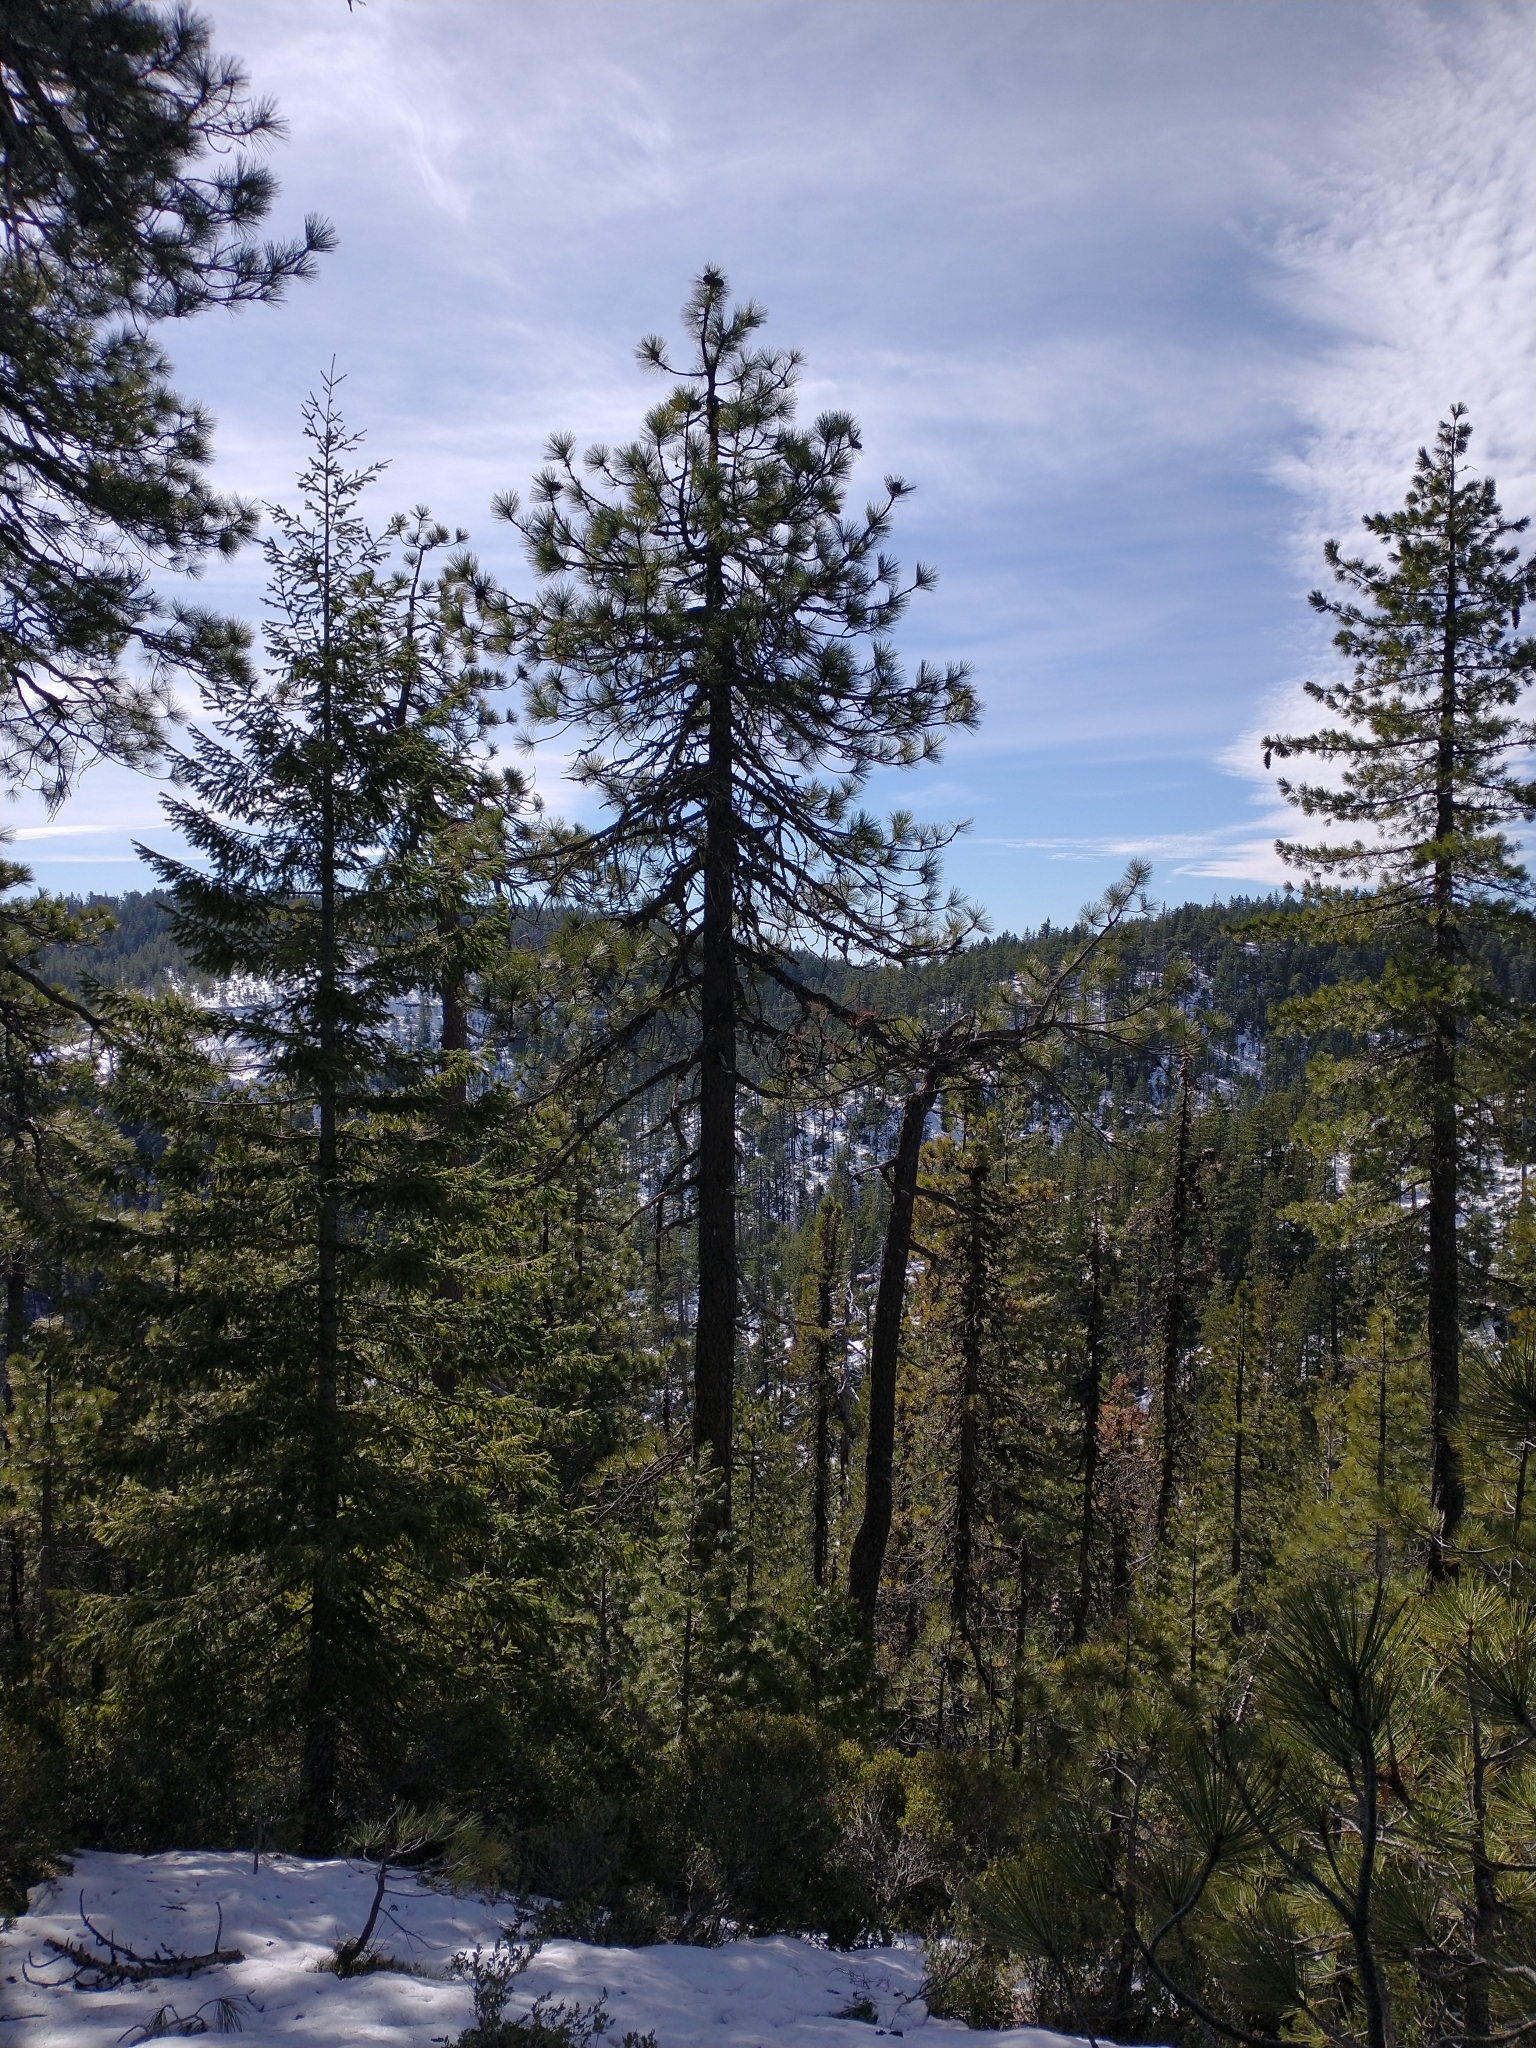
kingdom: Plantae
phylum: Tracheophyta
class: Pinopsida
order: Pinales
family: Pinaceae
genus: Pseudotsuga
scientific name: Pseudotsuga menziesii
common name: Douglas fir
